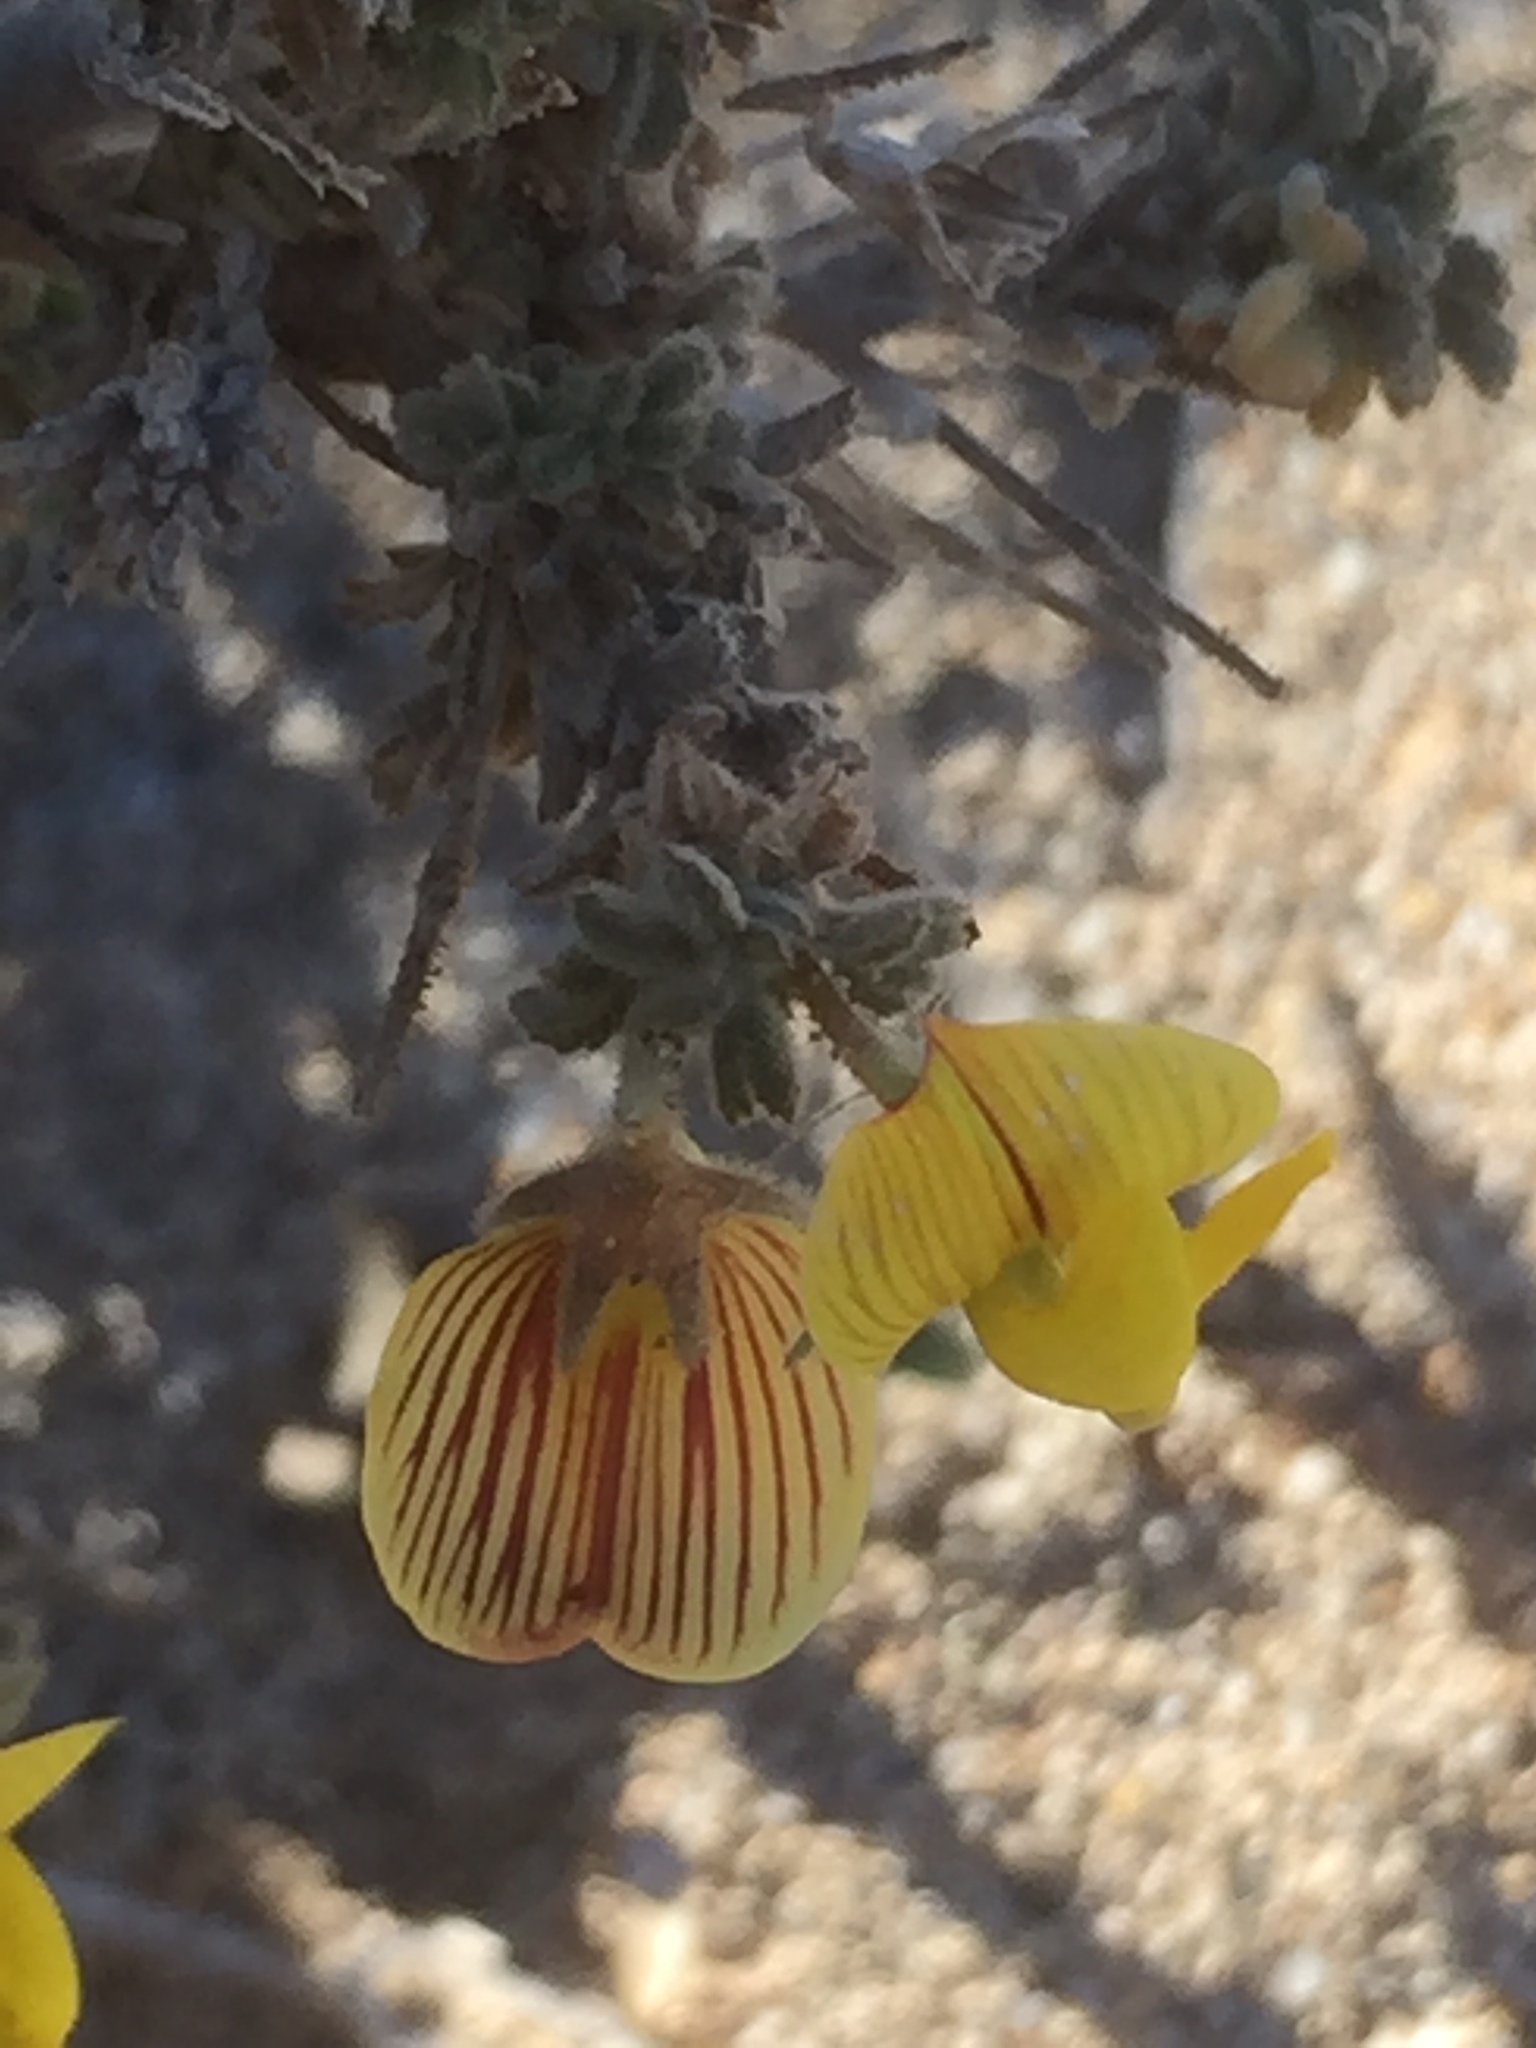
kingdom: Plantae
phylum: Tracheophyta
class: Magnoliopsida
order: Fabales
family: Fabaceae
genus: Ononis
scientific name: Ononis natrix
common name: Yellow restharrow
